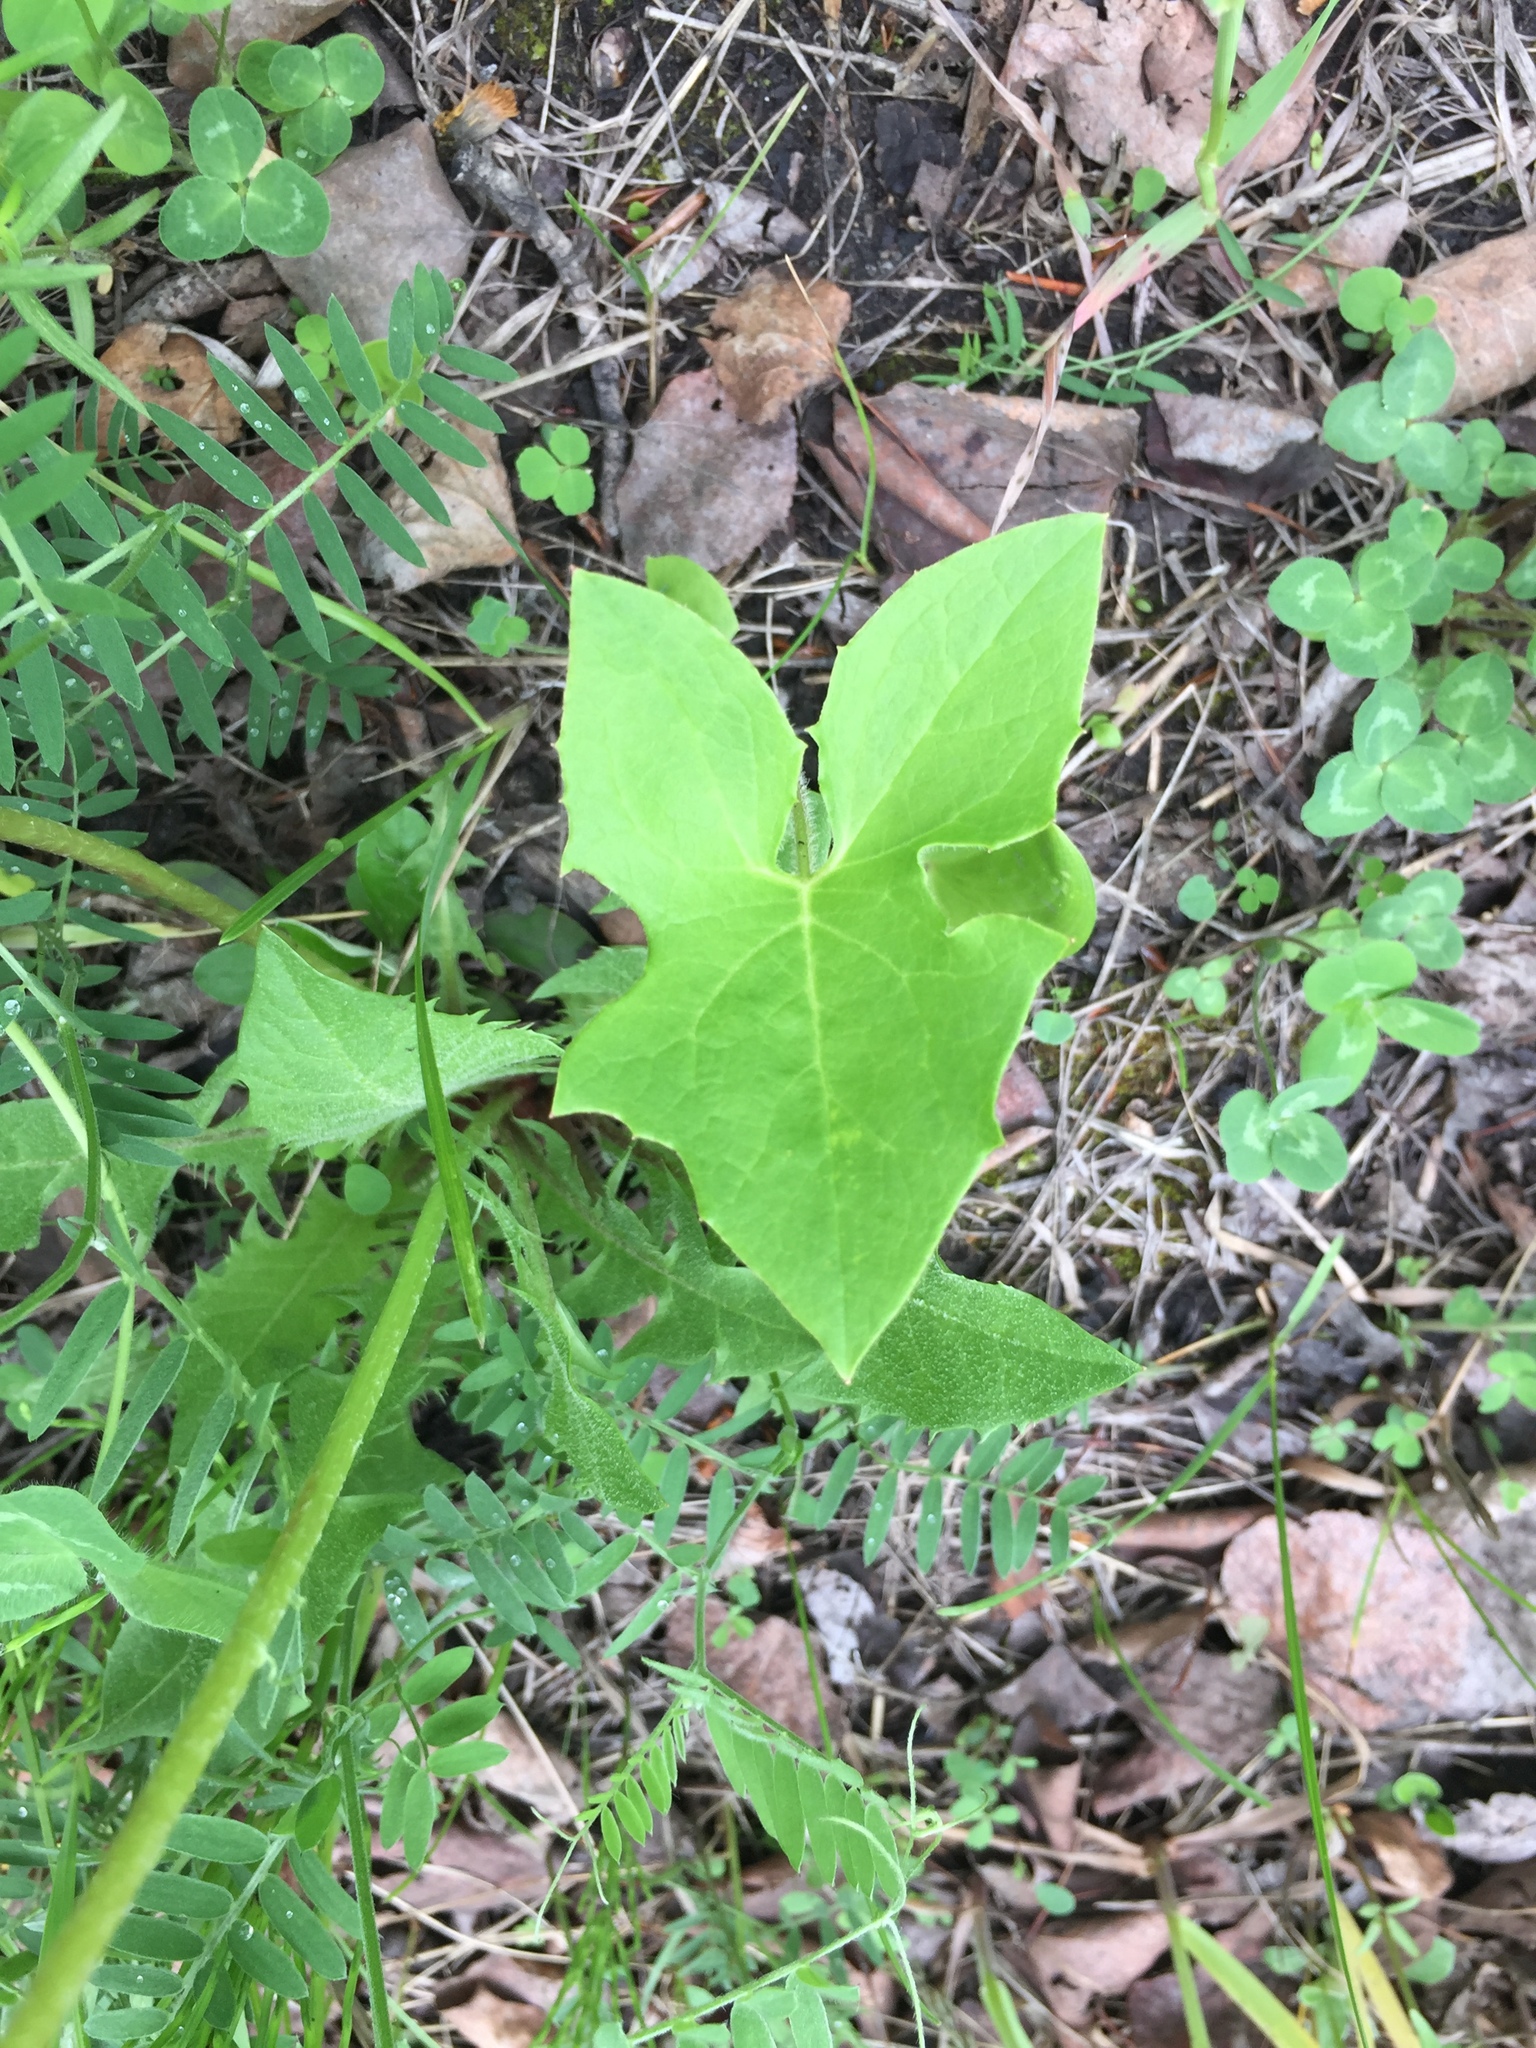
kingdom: Plantae
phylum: Tracheophyta
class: Magnoliopsida
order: Asterales
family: Asteraceae
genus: Nabalus
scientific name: Nabalus albus
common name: White rattlesnakeroot
